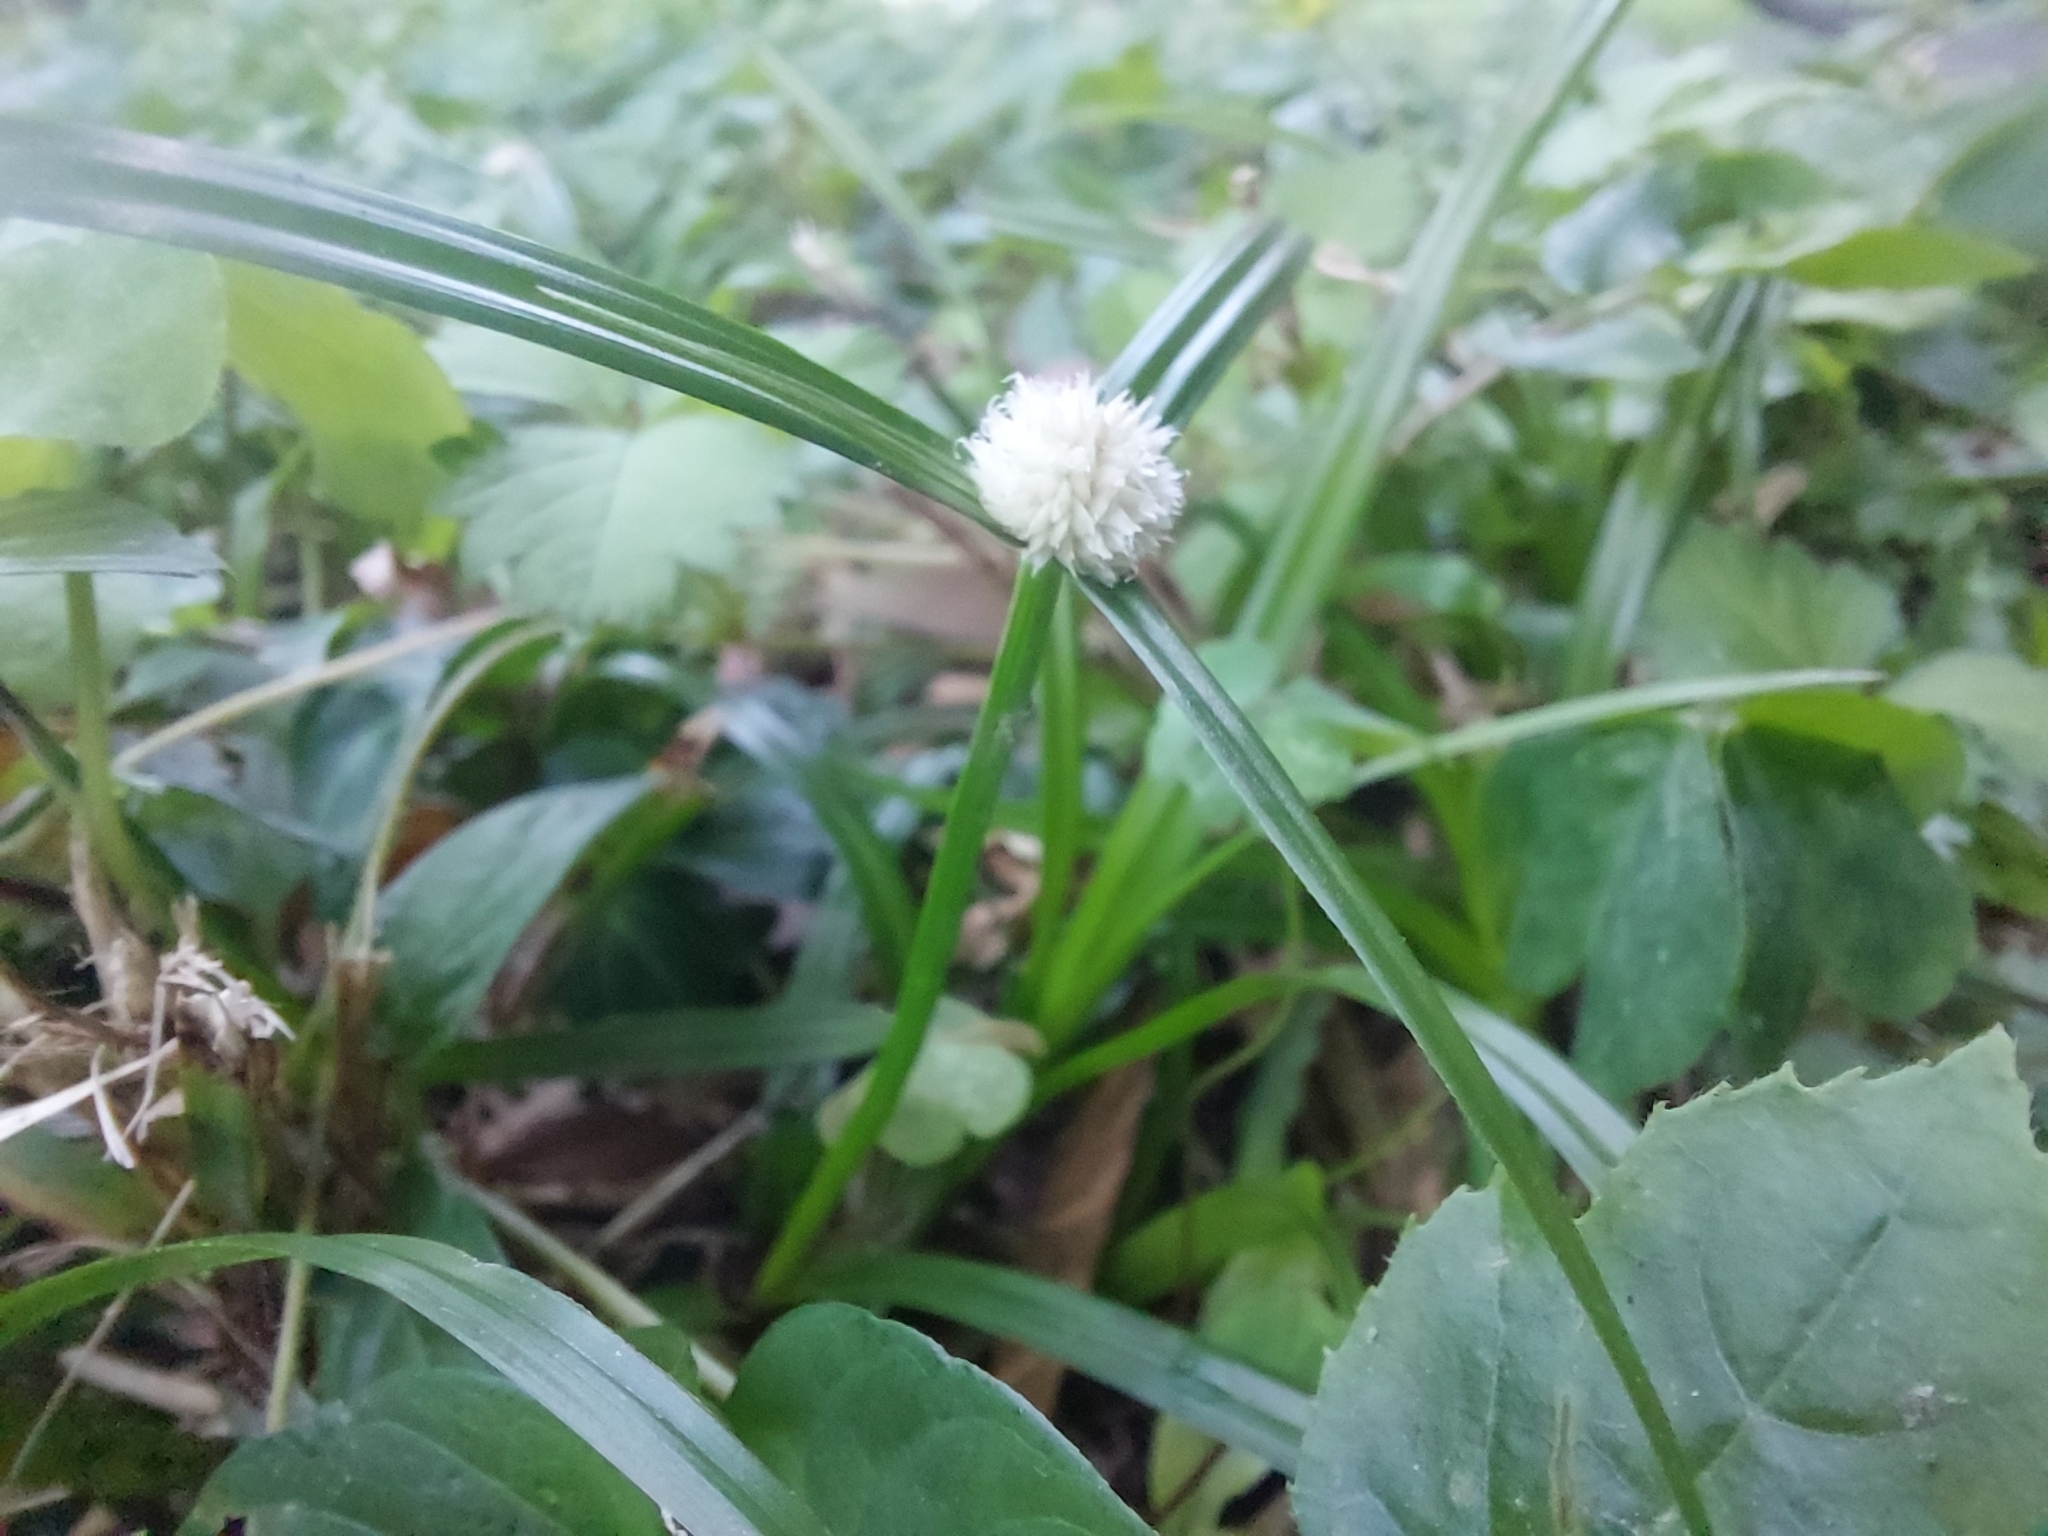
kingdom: Plantae
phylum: Tracheophyta
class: Liliopsida
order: Poales
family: Cyperaceae
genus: Cyperus
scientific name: Cyperus mindorensis
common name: Flatsedge
